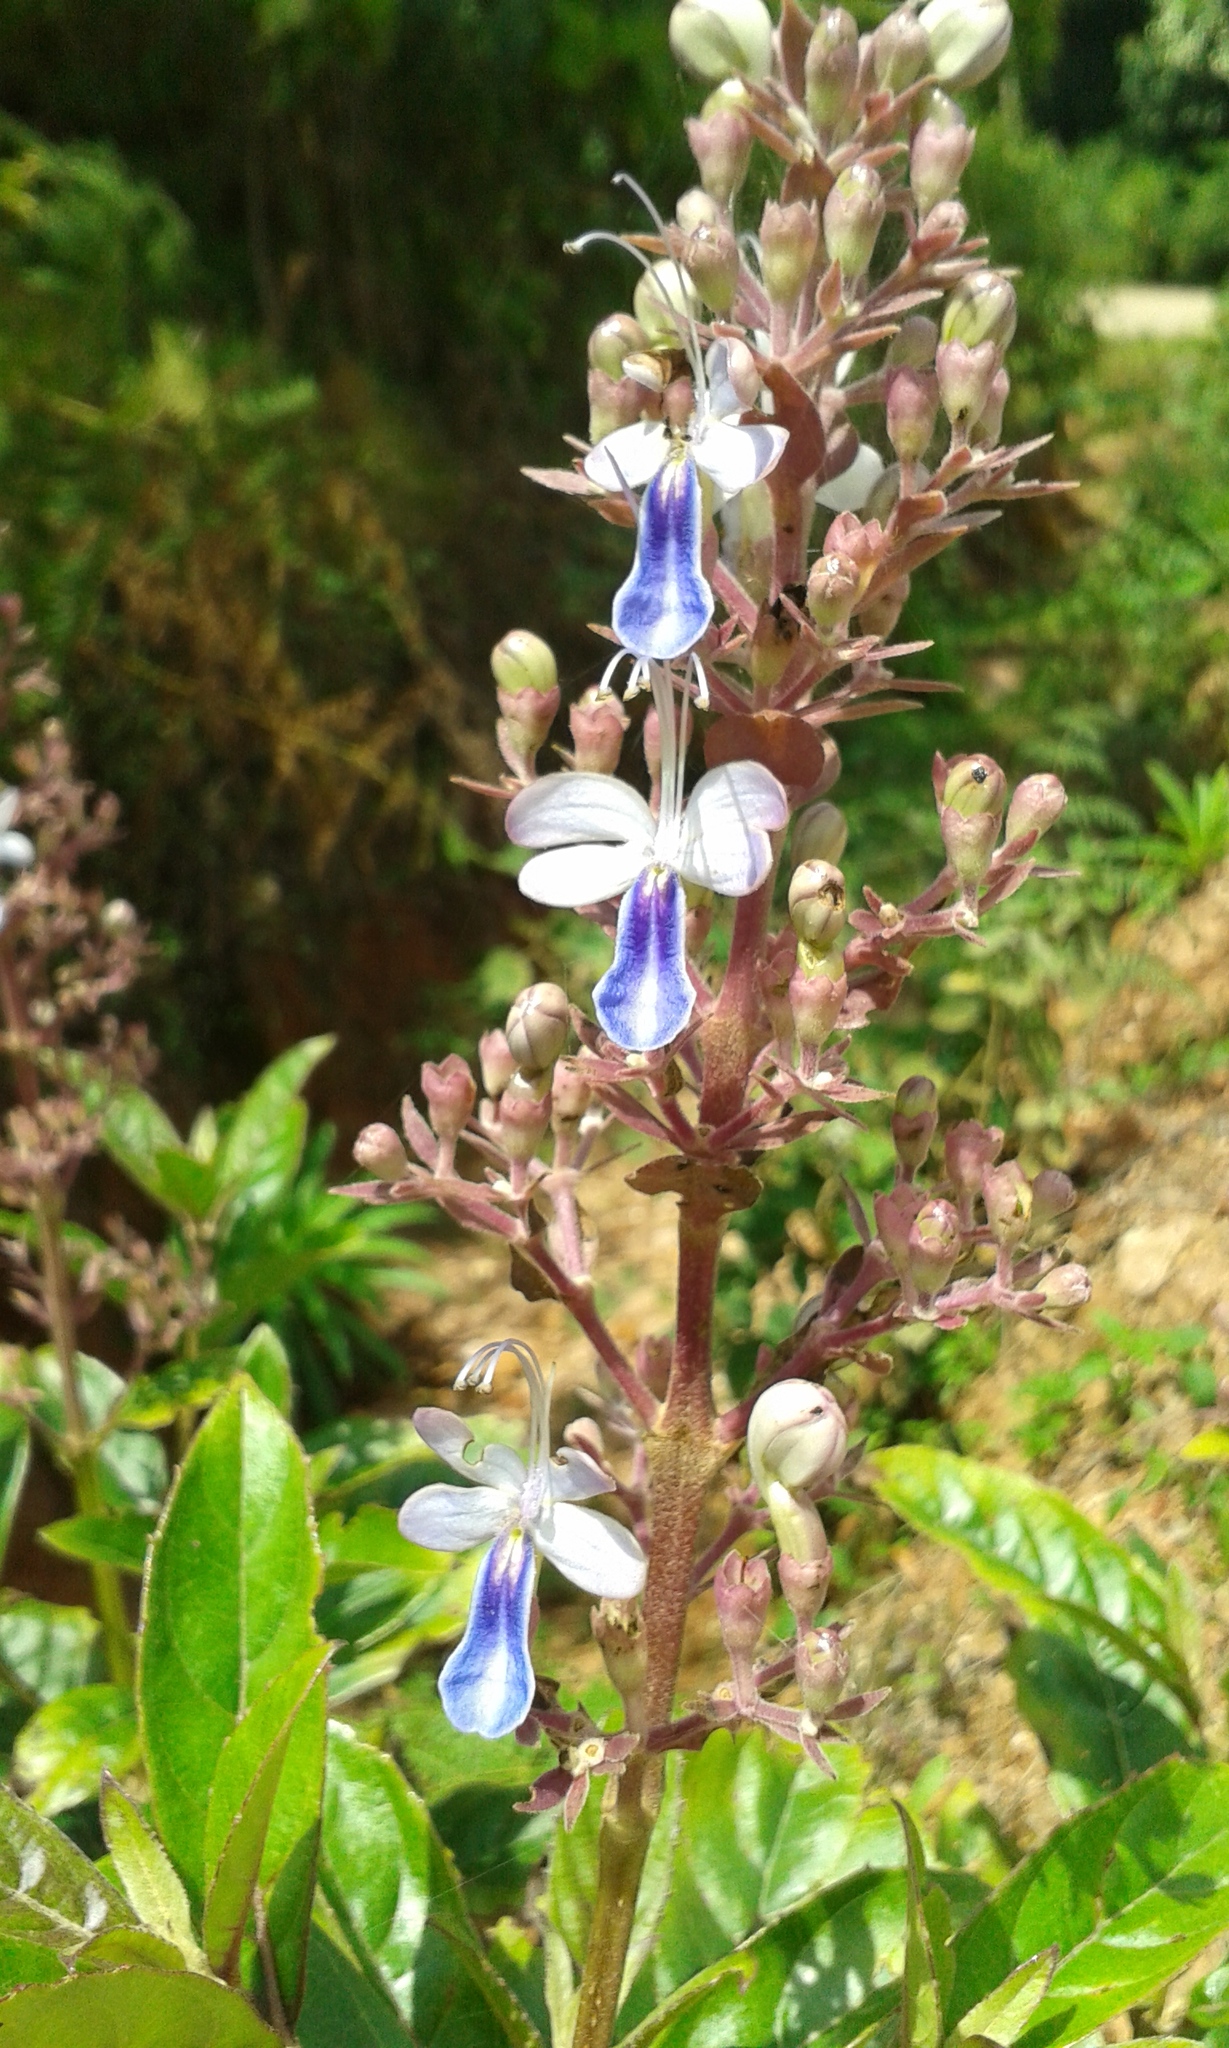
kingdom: Plantae
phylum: Tracheophyta
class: Magnoliopsida
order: Lamiales
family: Lamiaceae
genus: Rotheca
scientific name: Rotheca serrata
